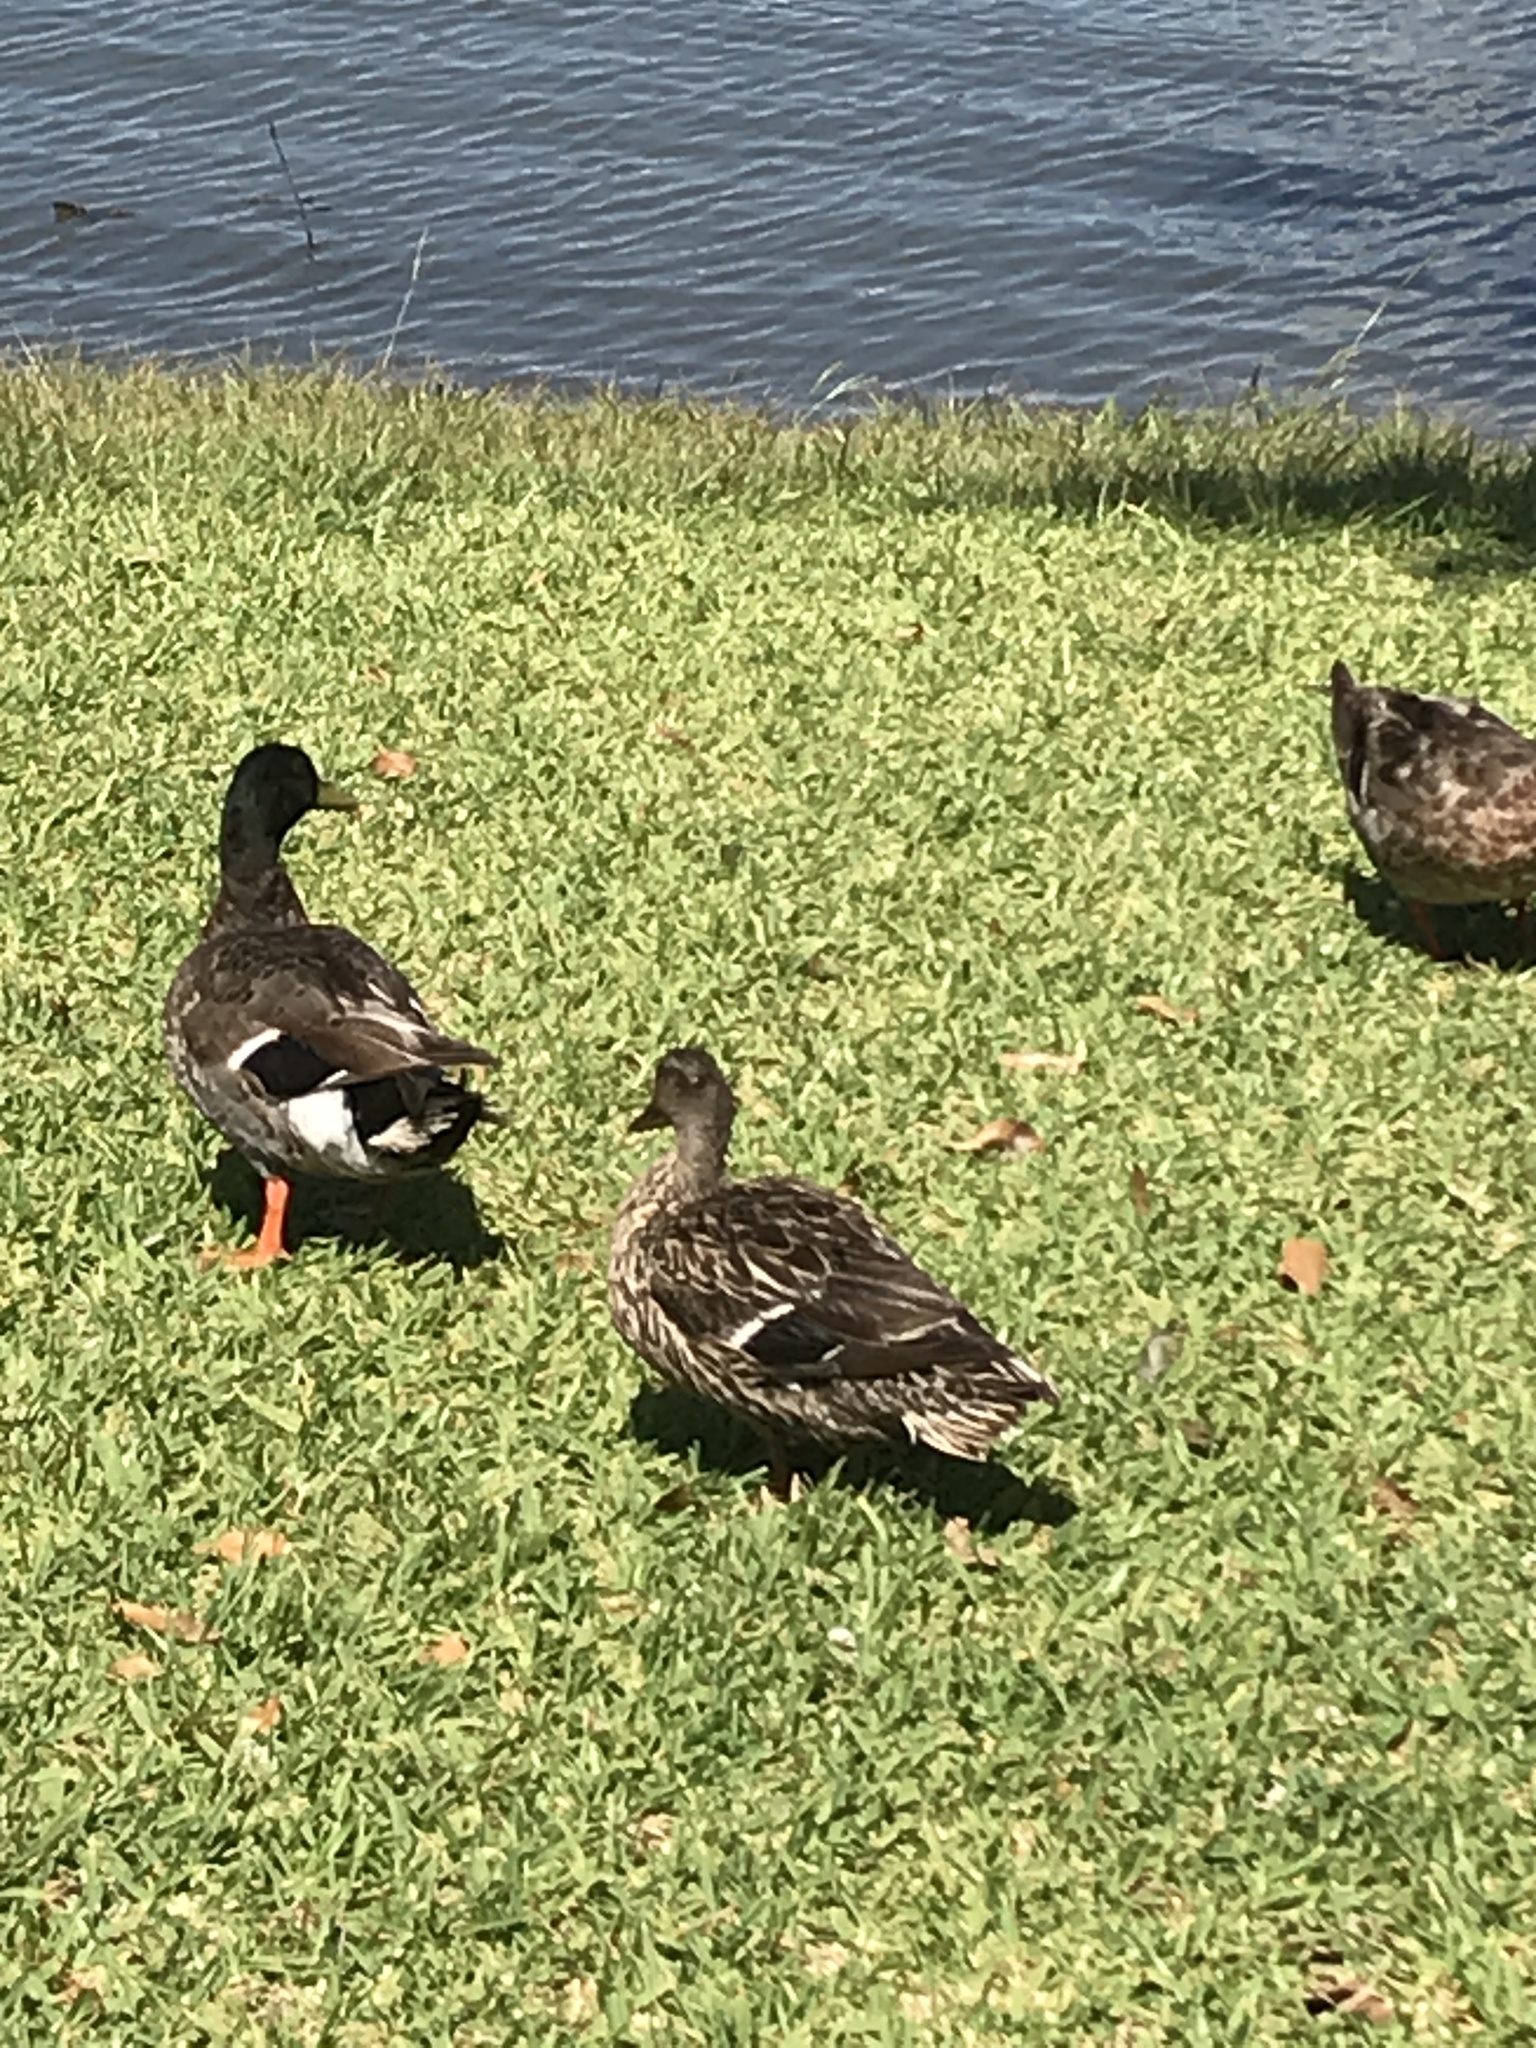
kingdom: Animalia
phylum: Chordata
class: Aves
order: Anseriformes
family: Anatidae
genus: Anas
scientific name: Anas platyrhynchos
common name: Mallard
